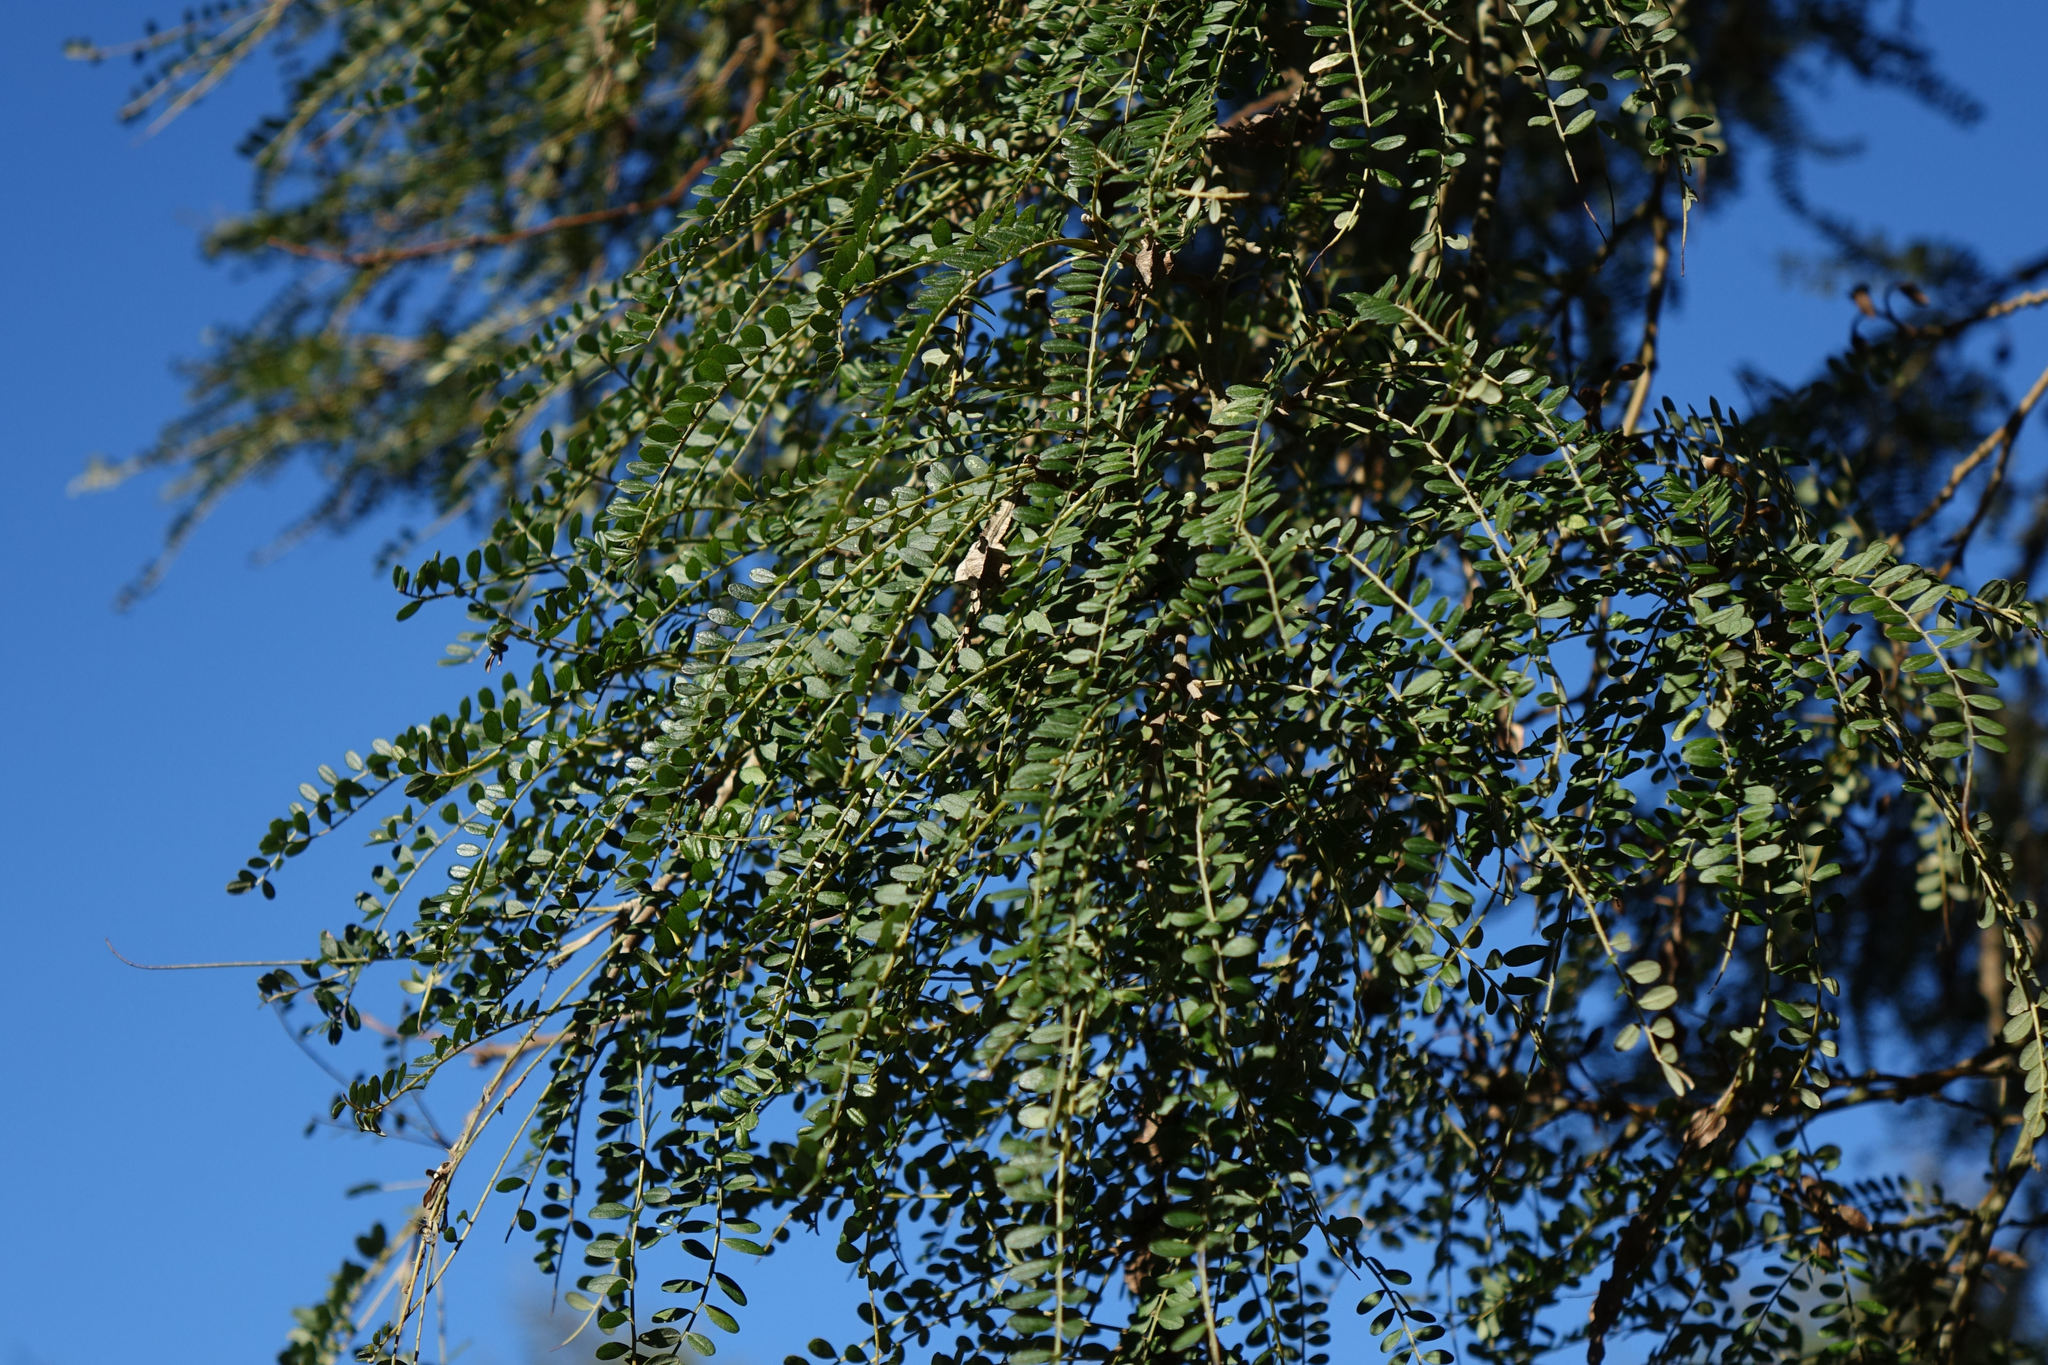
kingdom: Plantae
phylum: Tracheophyta
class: Magnoliopsida
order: Fabales
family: Fabaceae
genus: Sophora
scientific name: Sophora microphylla
